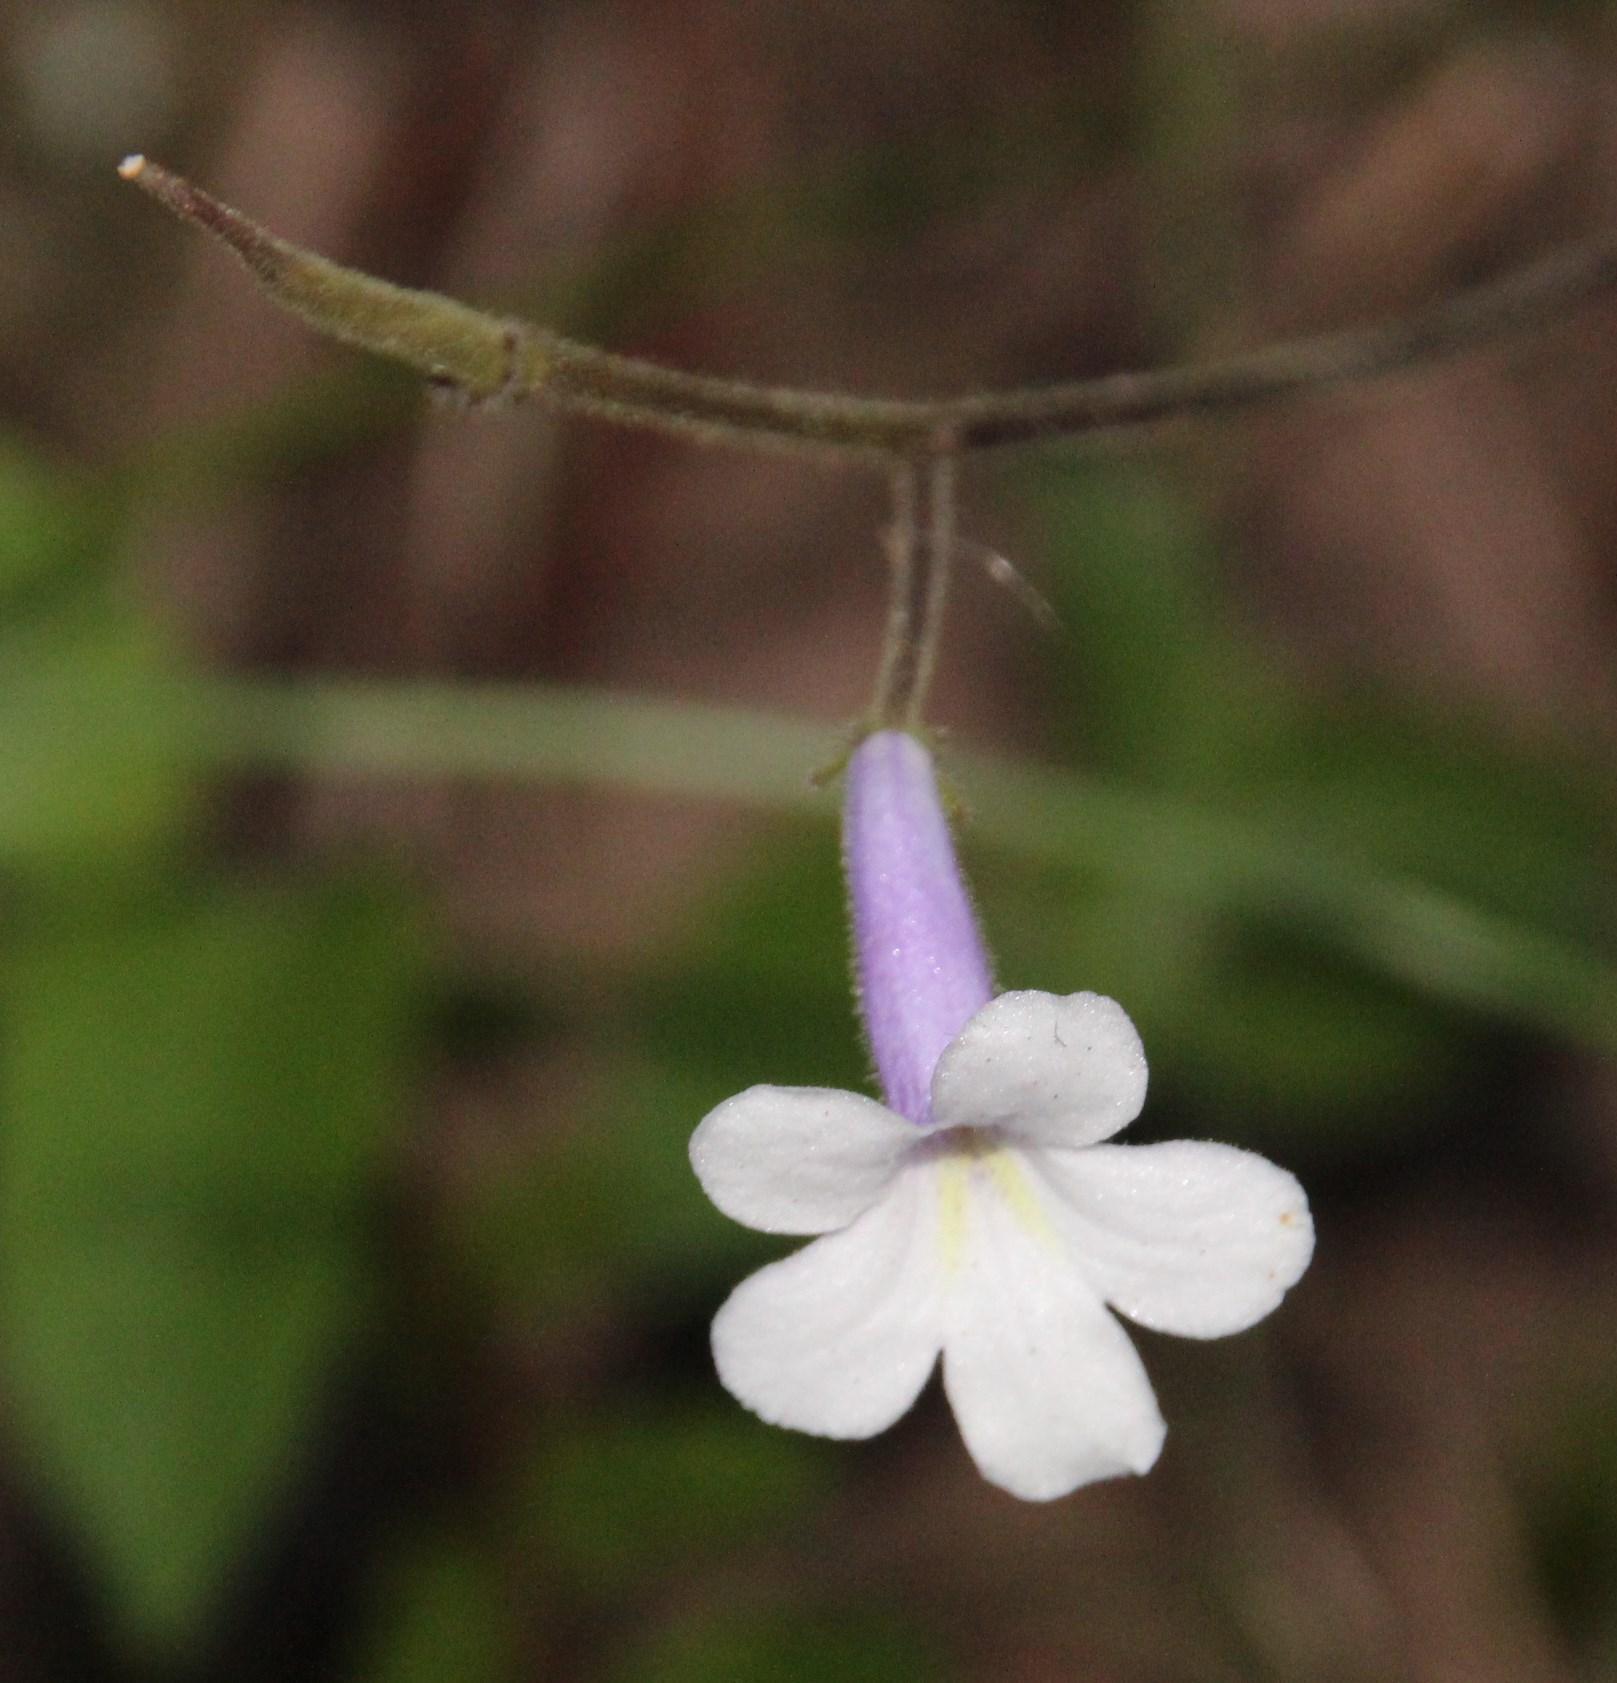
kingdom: Plantae
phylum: Tracheophyta
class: Magnoliopsida
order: Lamiales
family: Gesneriaceae
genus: Streptocarpus
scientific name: Streptocarpus meyeri
